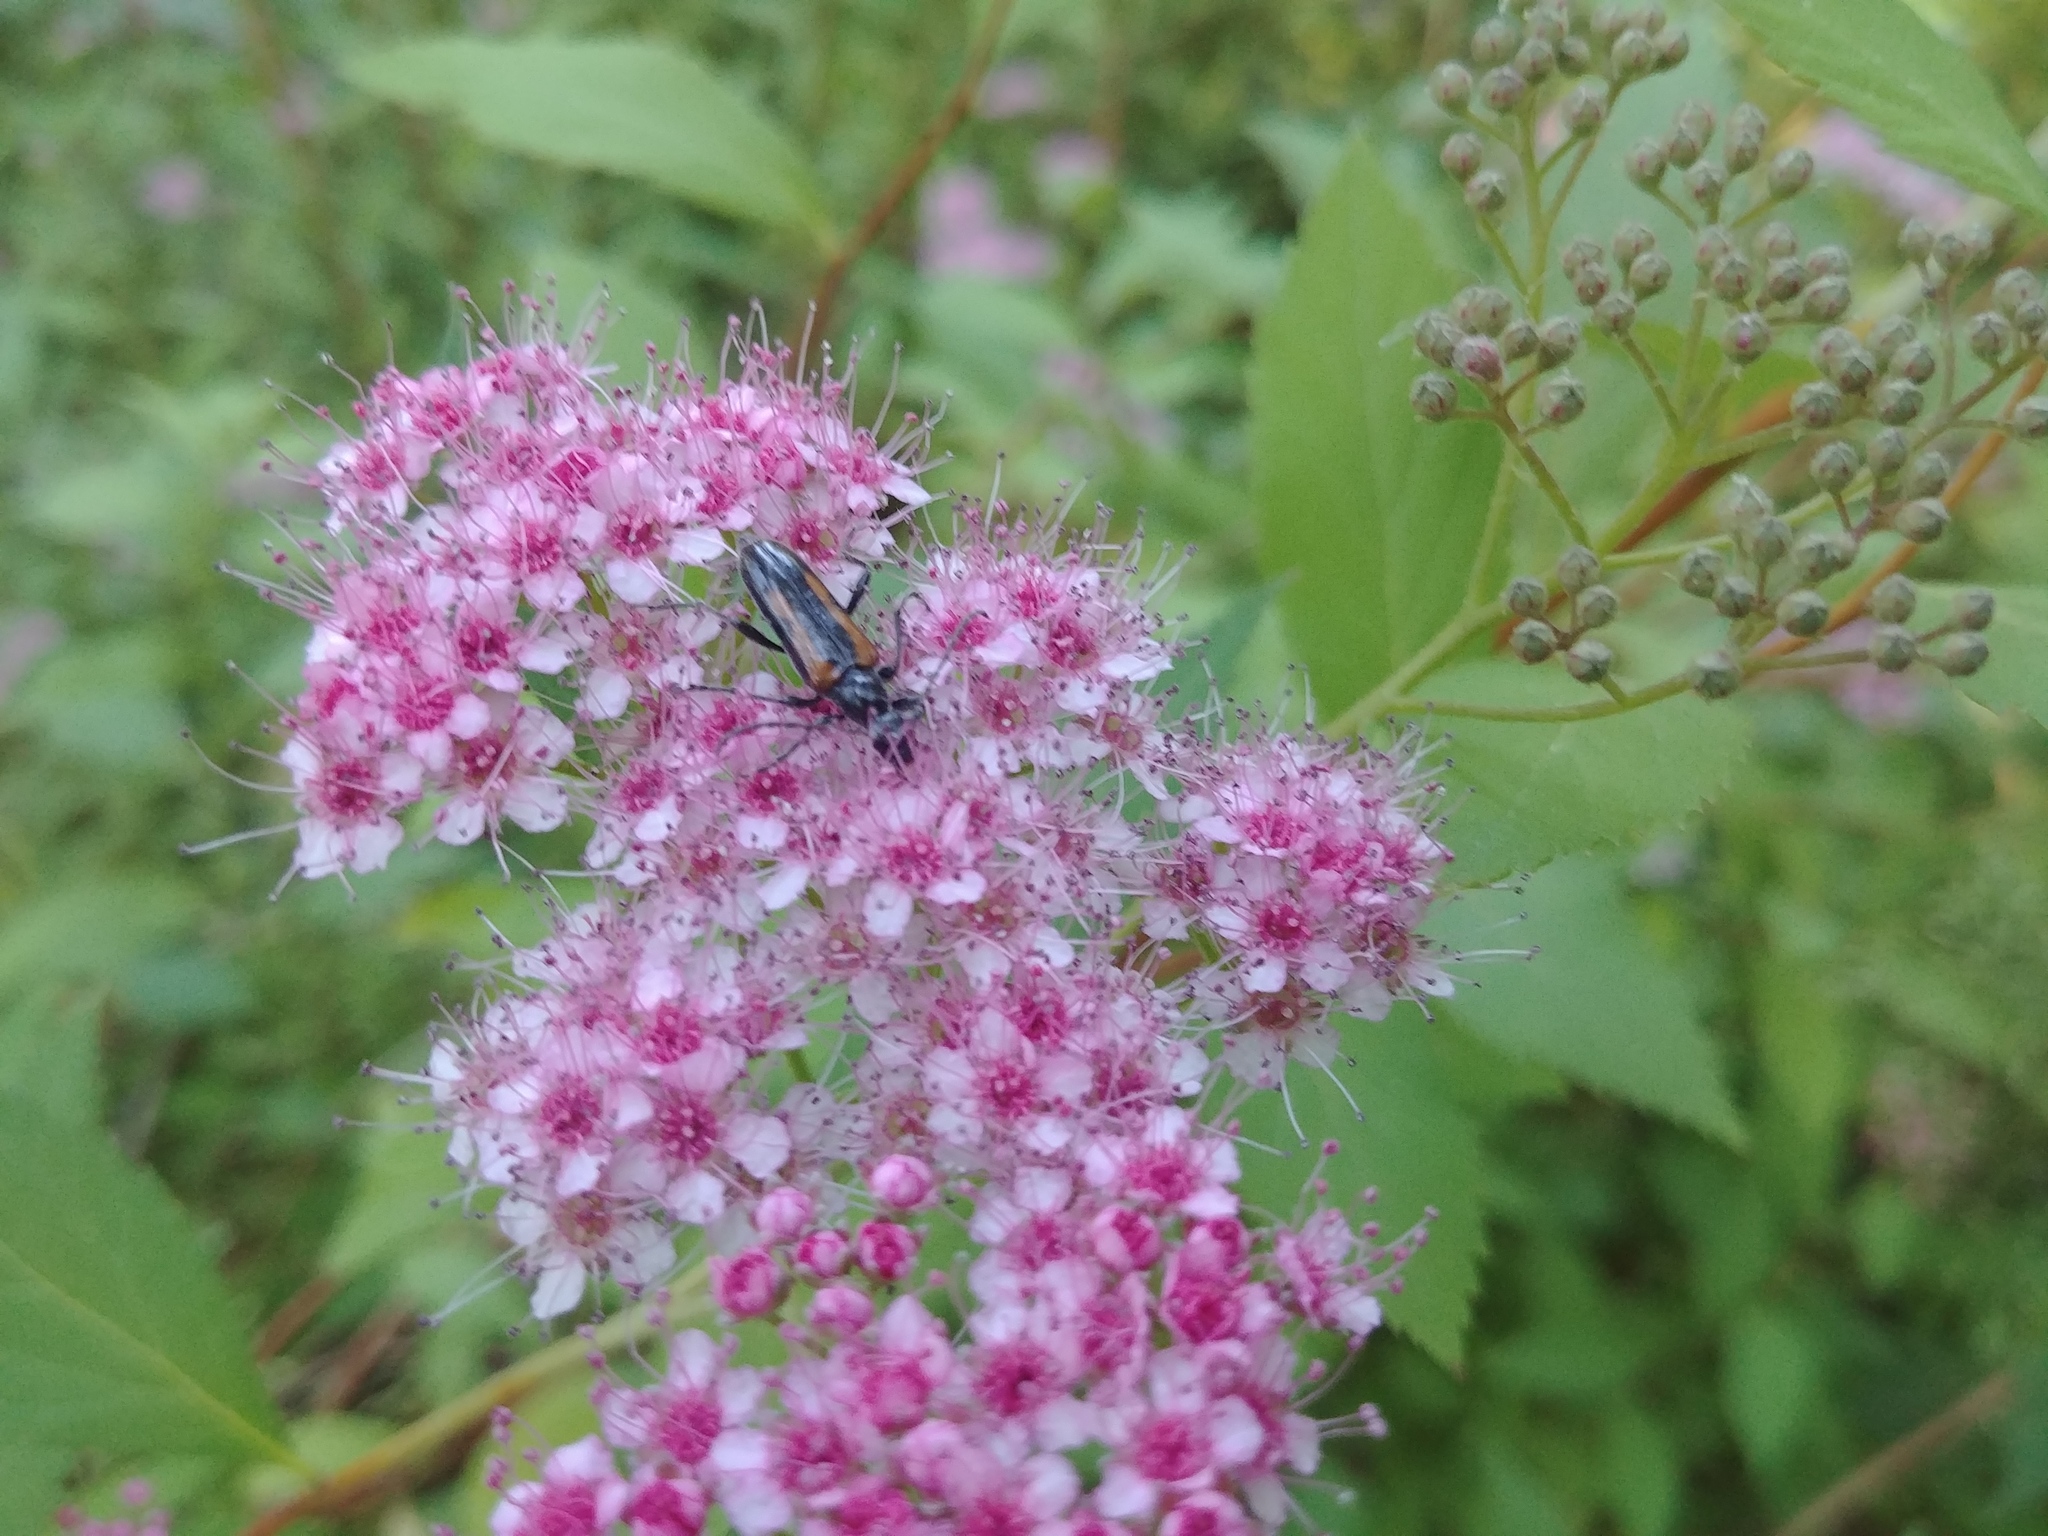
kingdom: Animalia
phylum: Arthropoda
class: Insecta
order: Coleoptera
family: Cerambycidae
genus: Strangalepta
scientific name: Strangalepta abbreviata
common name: Strangalepta flower longhorn beetle
